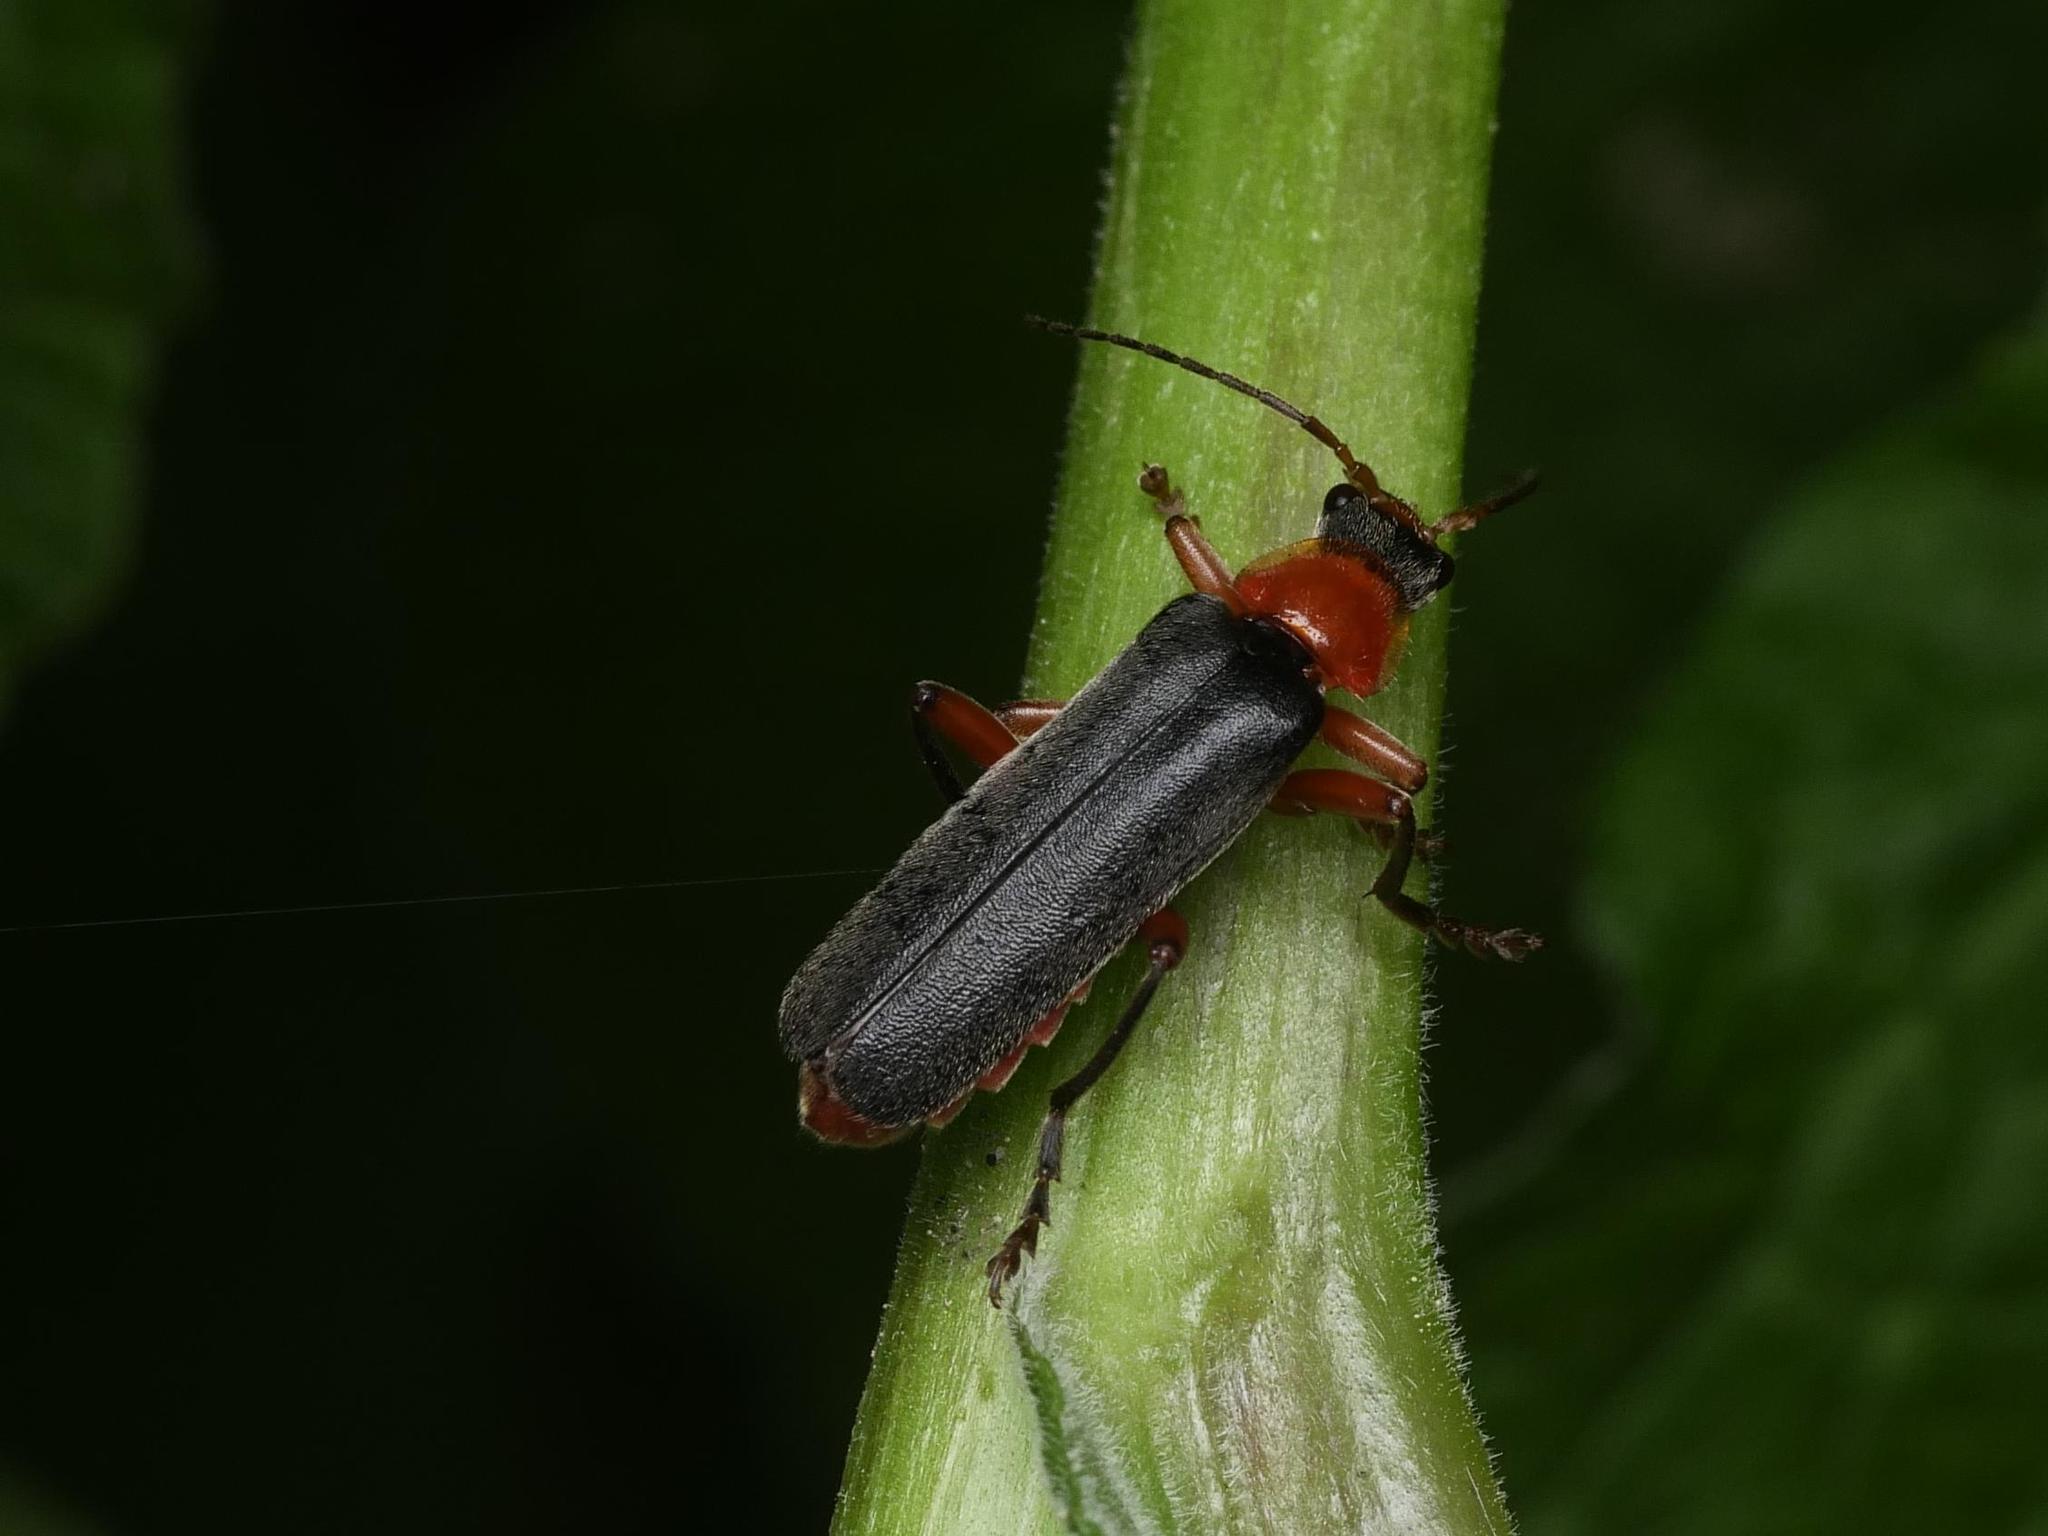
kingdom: Animalia
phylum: Arthropoda
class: Insecta
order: Coleoptera
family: Cantharidae
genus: Cantharis
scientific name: Cantharis pellucida
